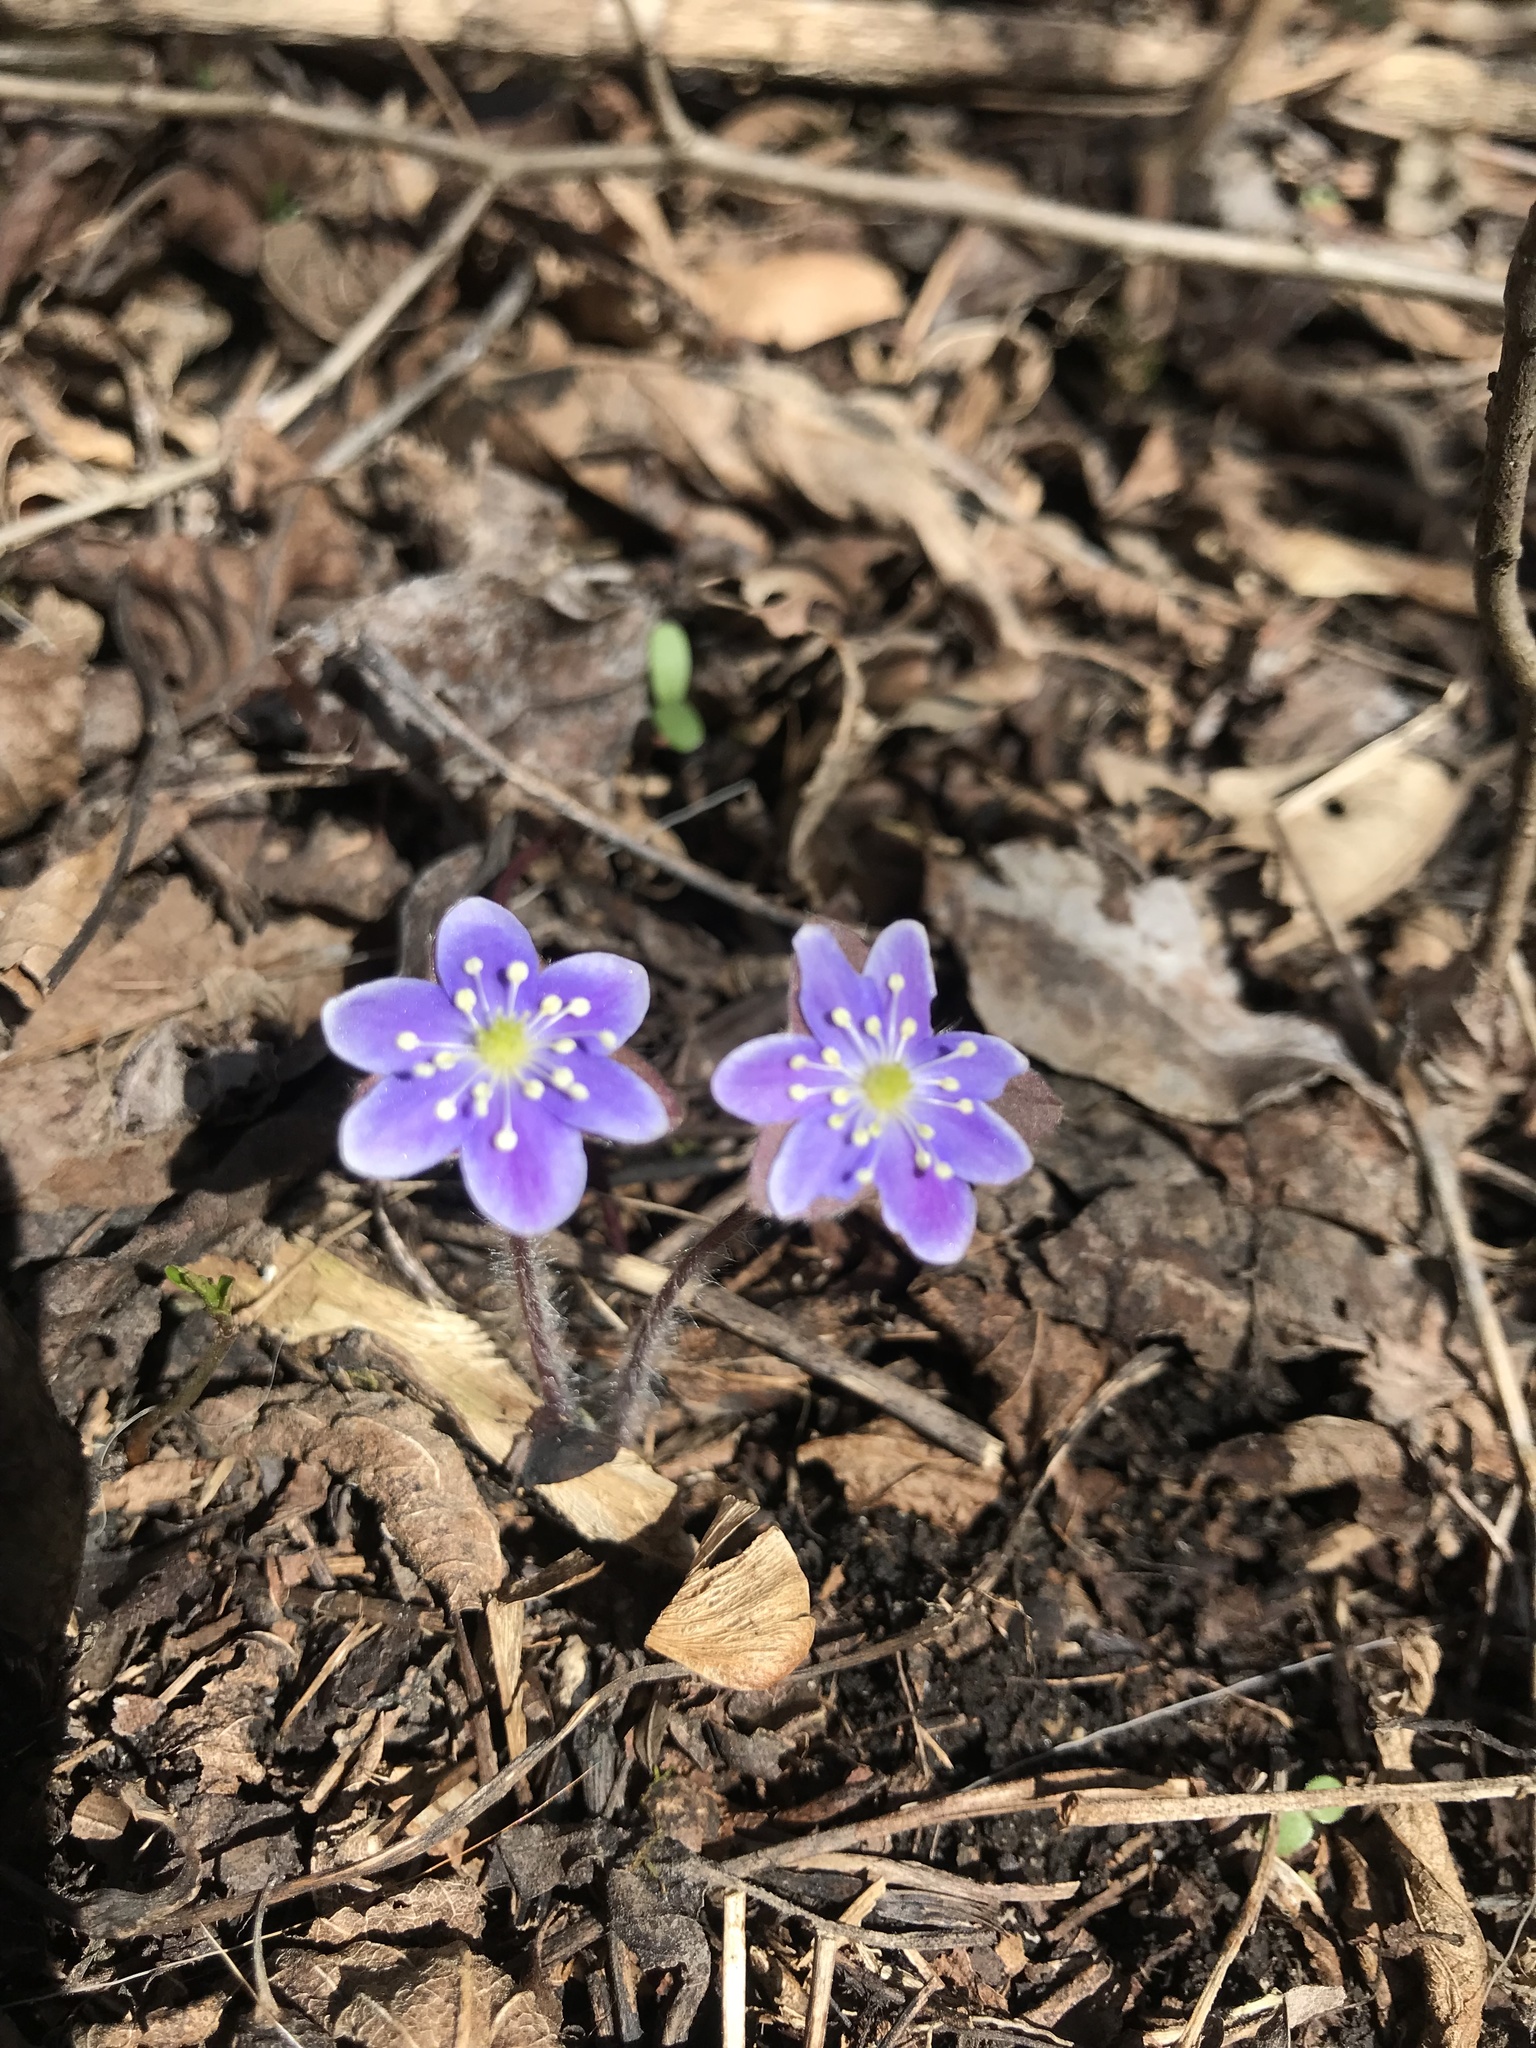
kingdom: Plantae
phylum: Tracheophyta
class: Magnoliopsida
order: Ranunculales
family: Ranunculaceae
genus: Hepatica
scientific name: Hepatica
